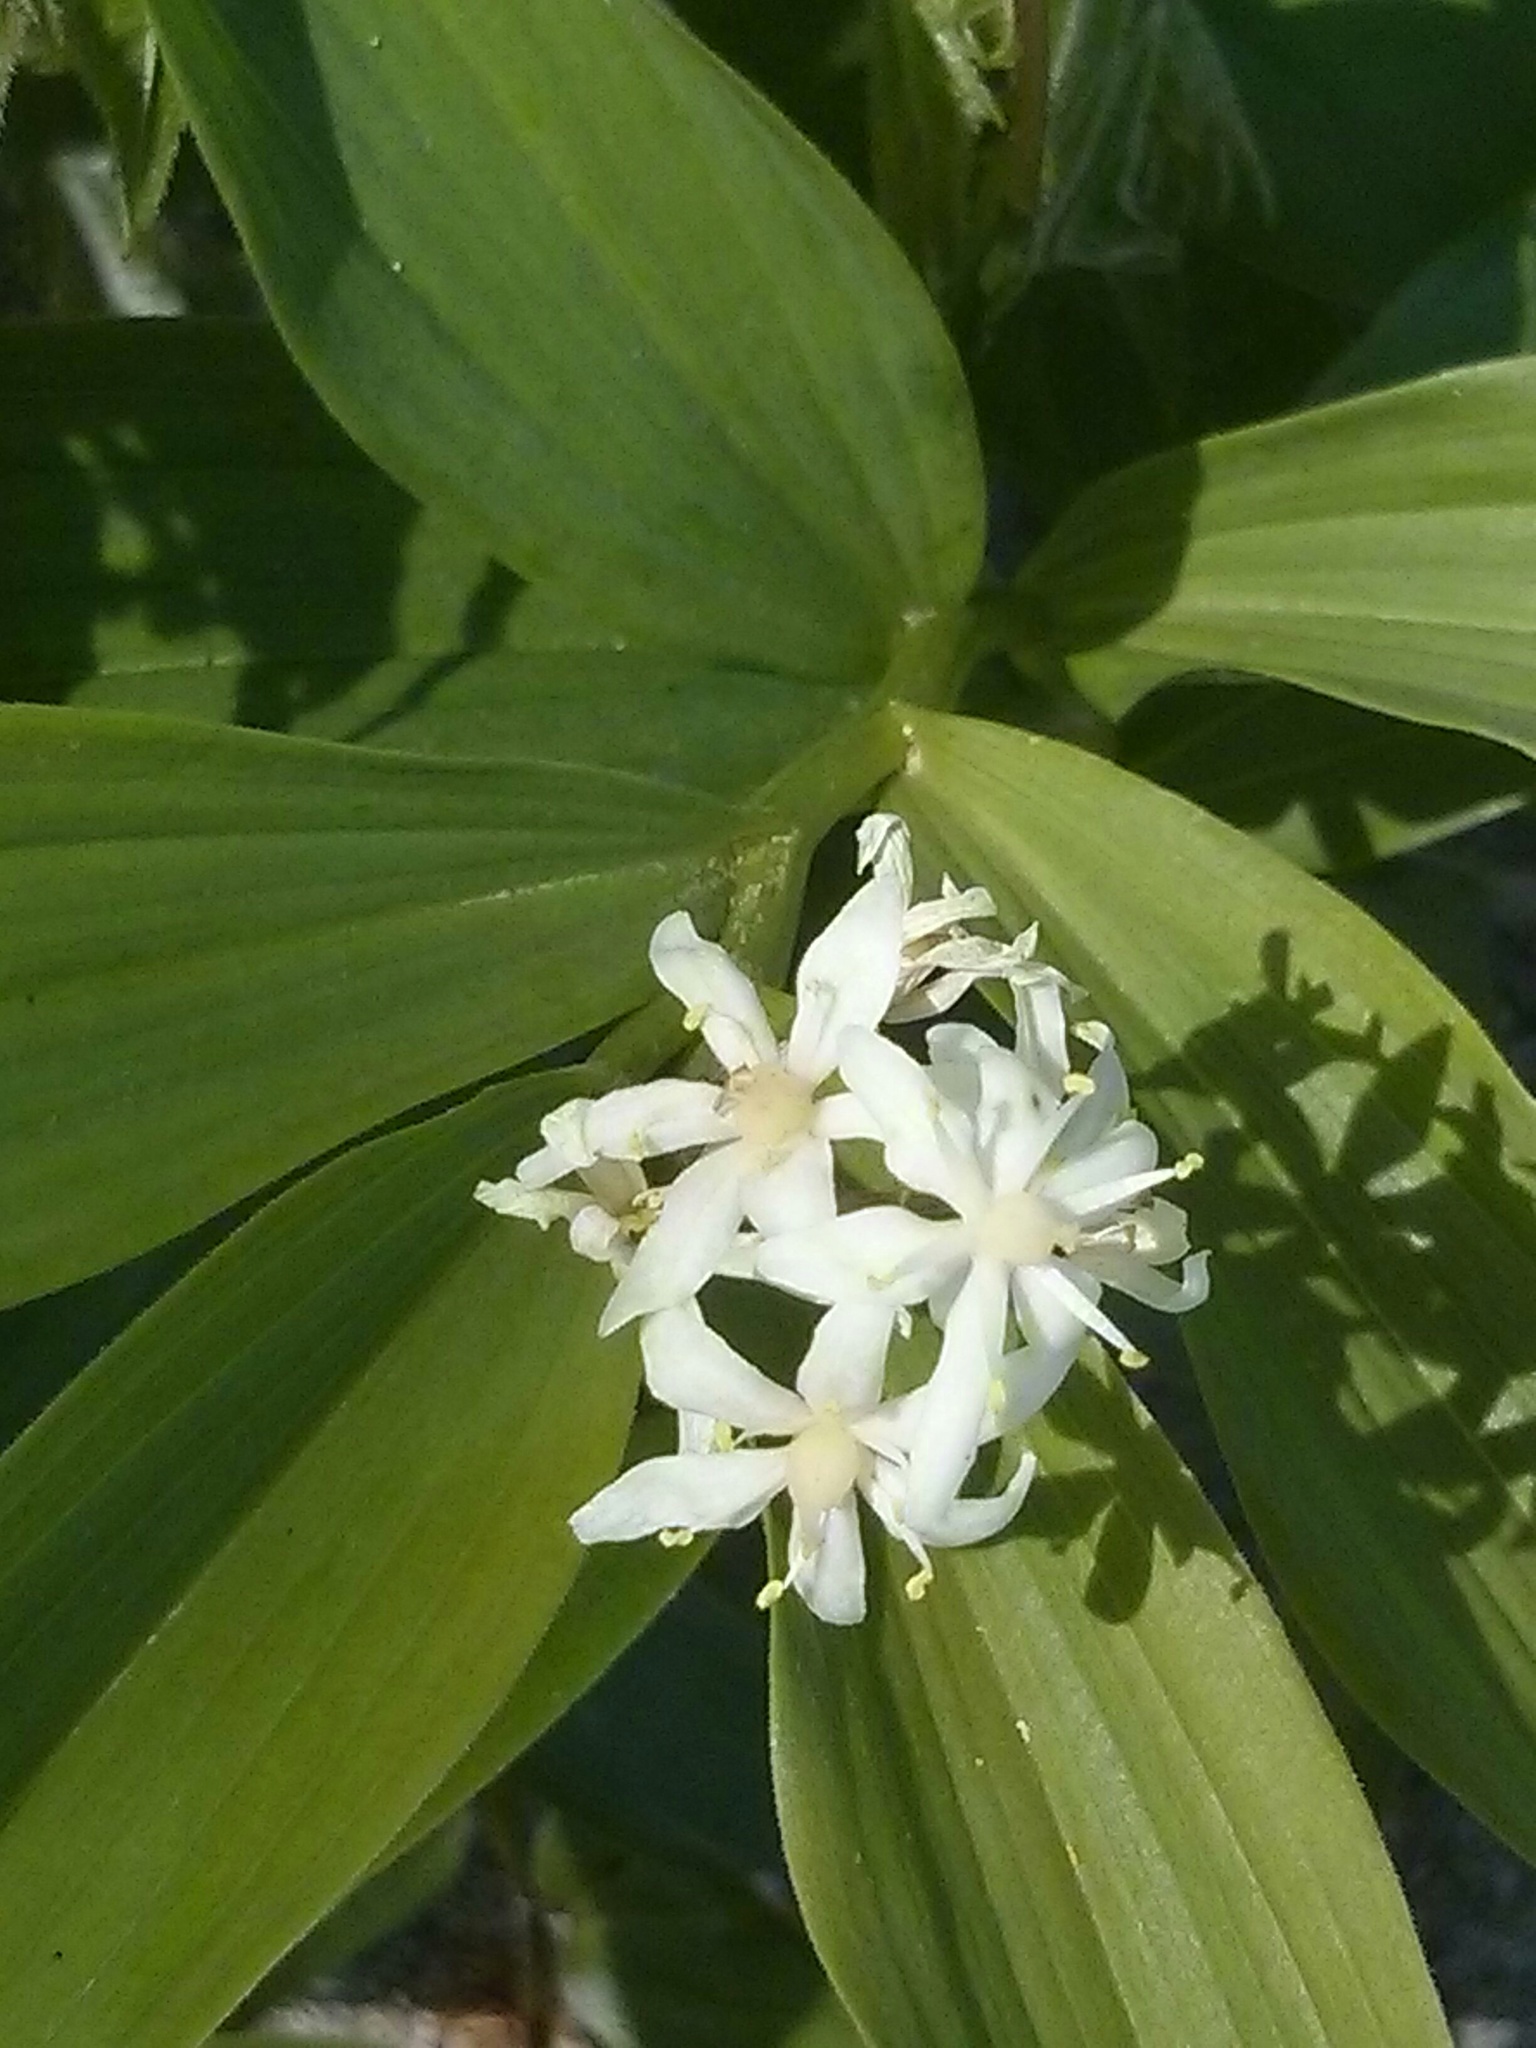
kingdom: Plantae
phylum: Tracheophyta
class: Liliopsida
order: Asparagales
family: Asparagaceae
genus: Maianthemum
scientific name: Maianthemum stellatum
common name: Little false solomon's seal
